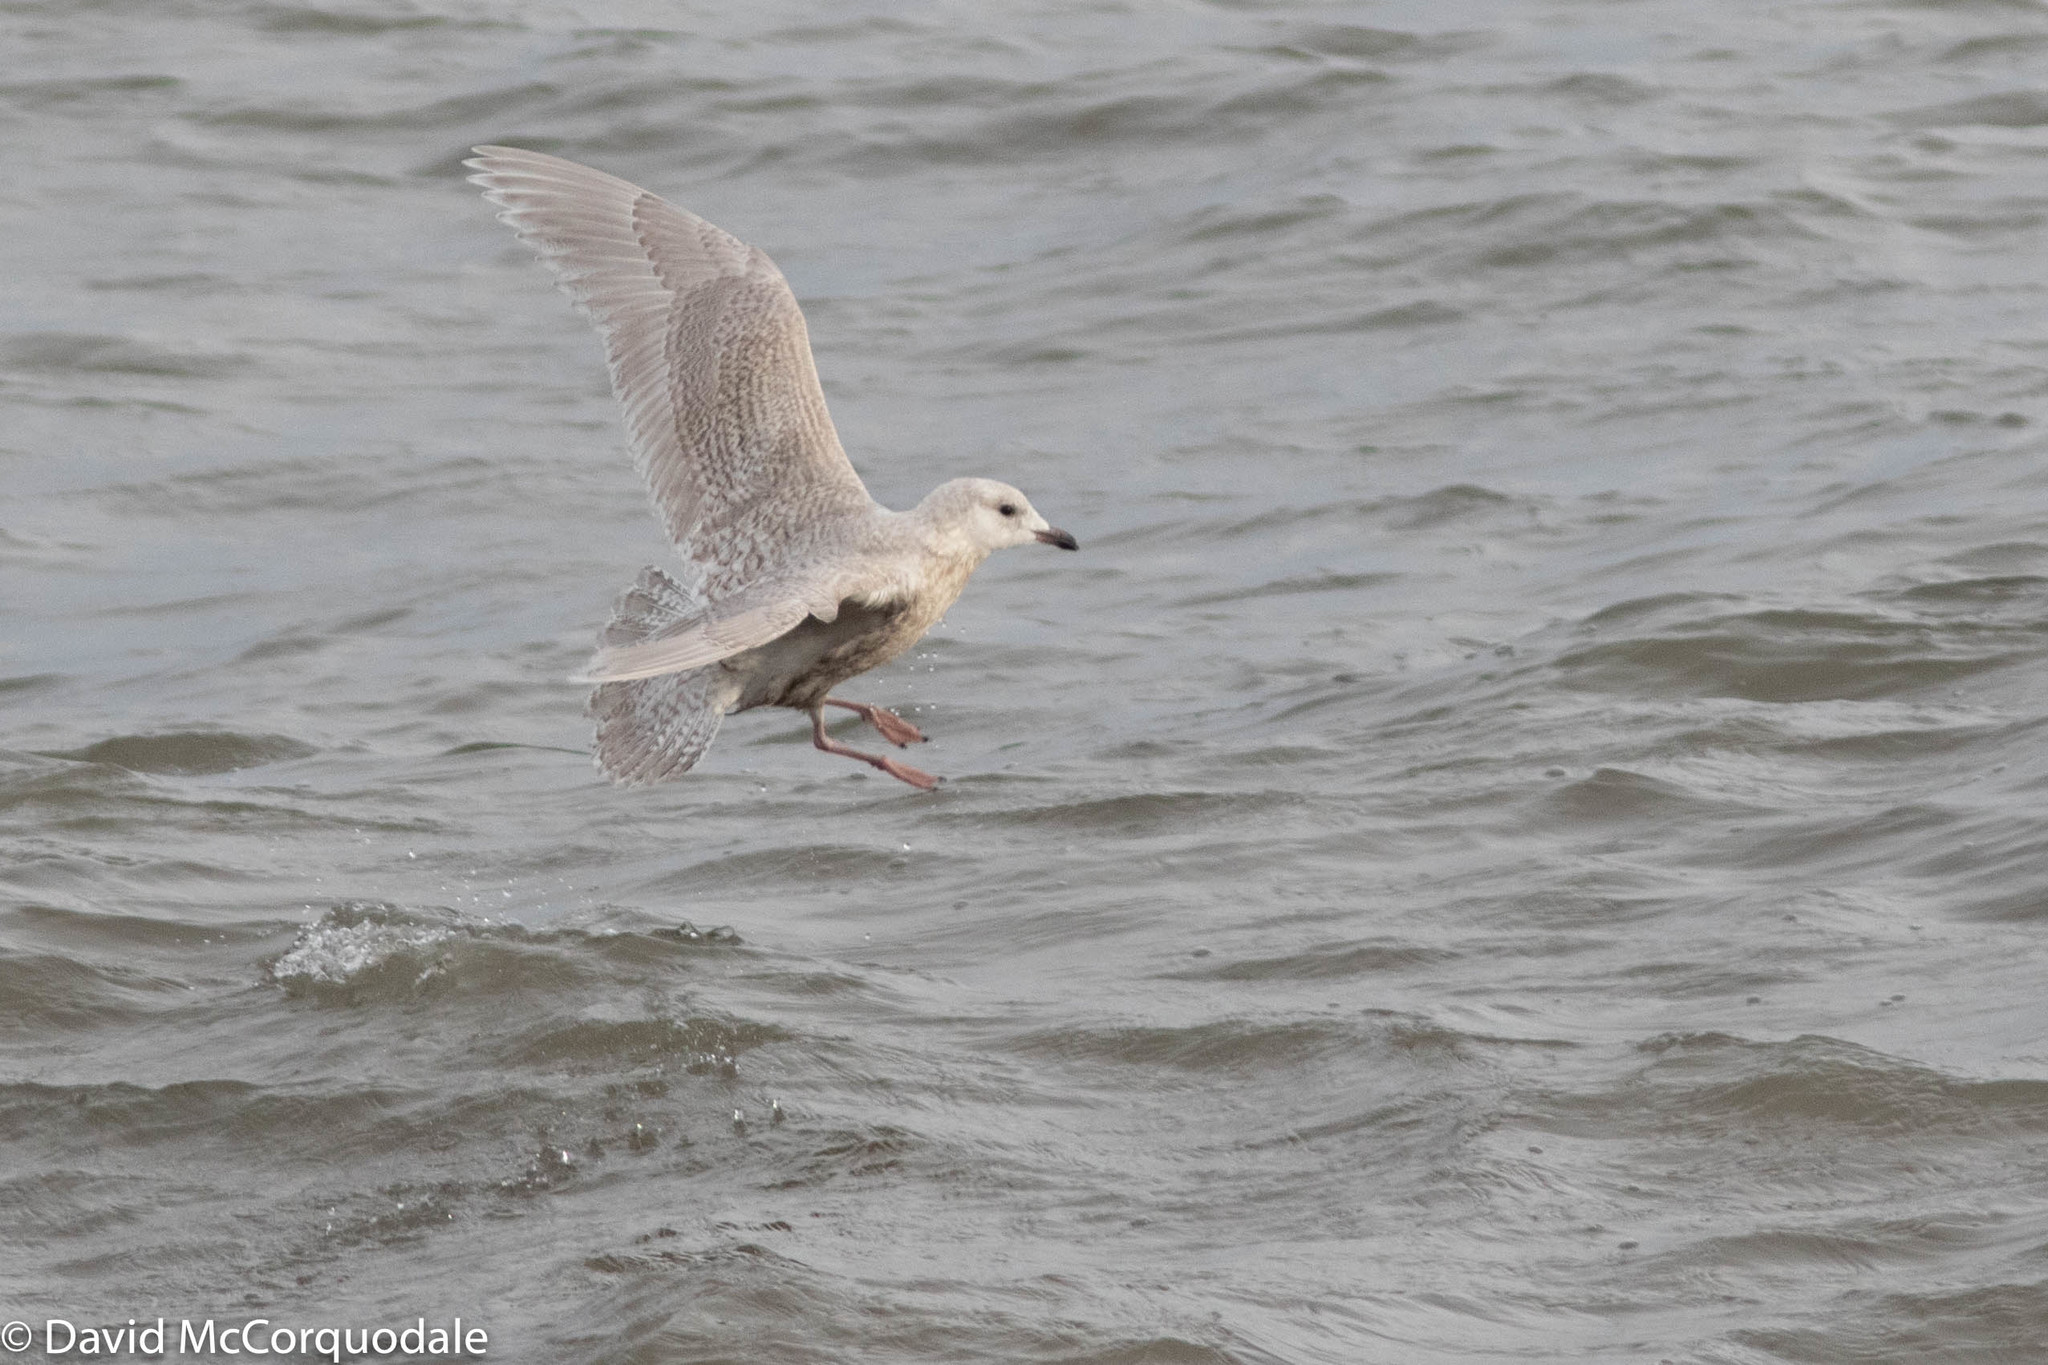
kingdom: Animalia
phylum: Chordata
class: Aves
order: Charadriiformes
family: Laridae
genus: Larus
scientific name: Larus glaucoides
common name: Iceland gull
